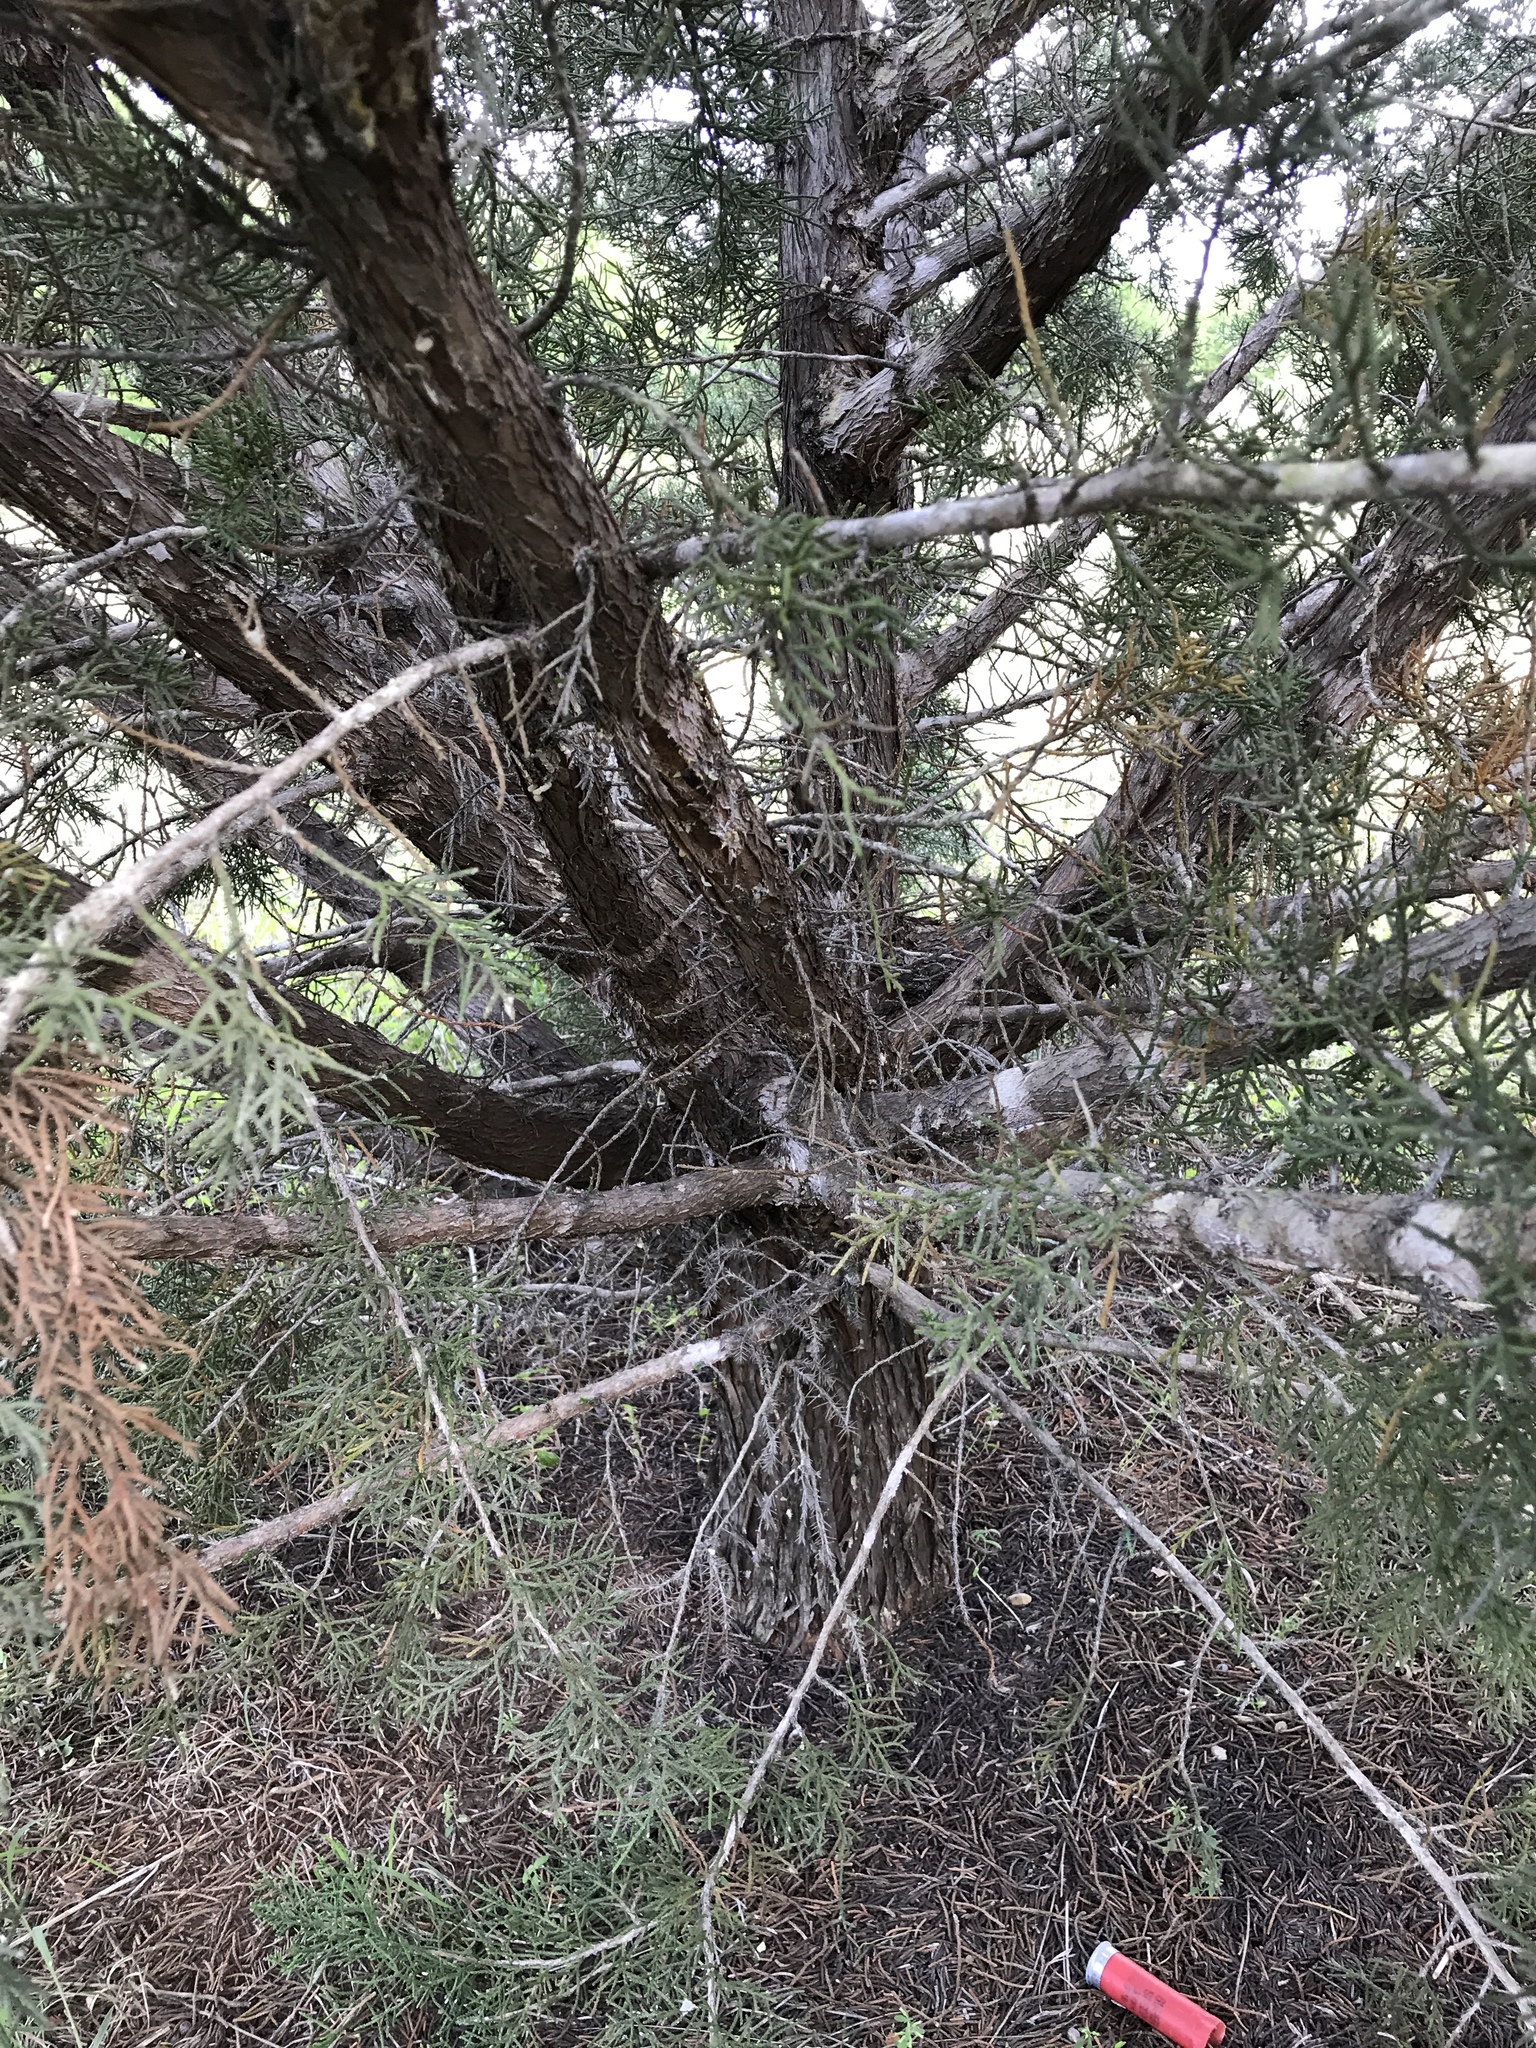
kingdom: Plantae
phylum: Tracheophyta
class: Pinopsida
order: Pinales
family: Cupressaceae
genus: Juniperus
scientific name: Juniperus ashei
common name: Mexican juniper
